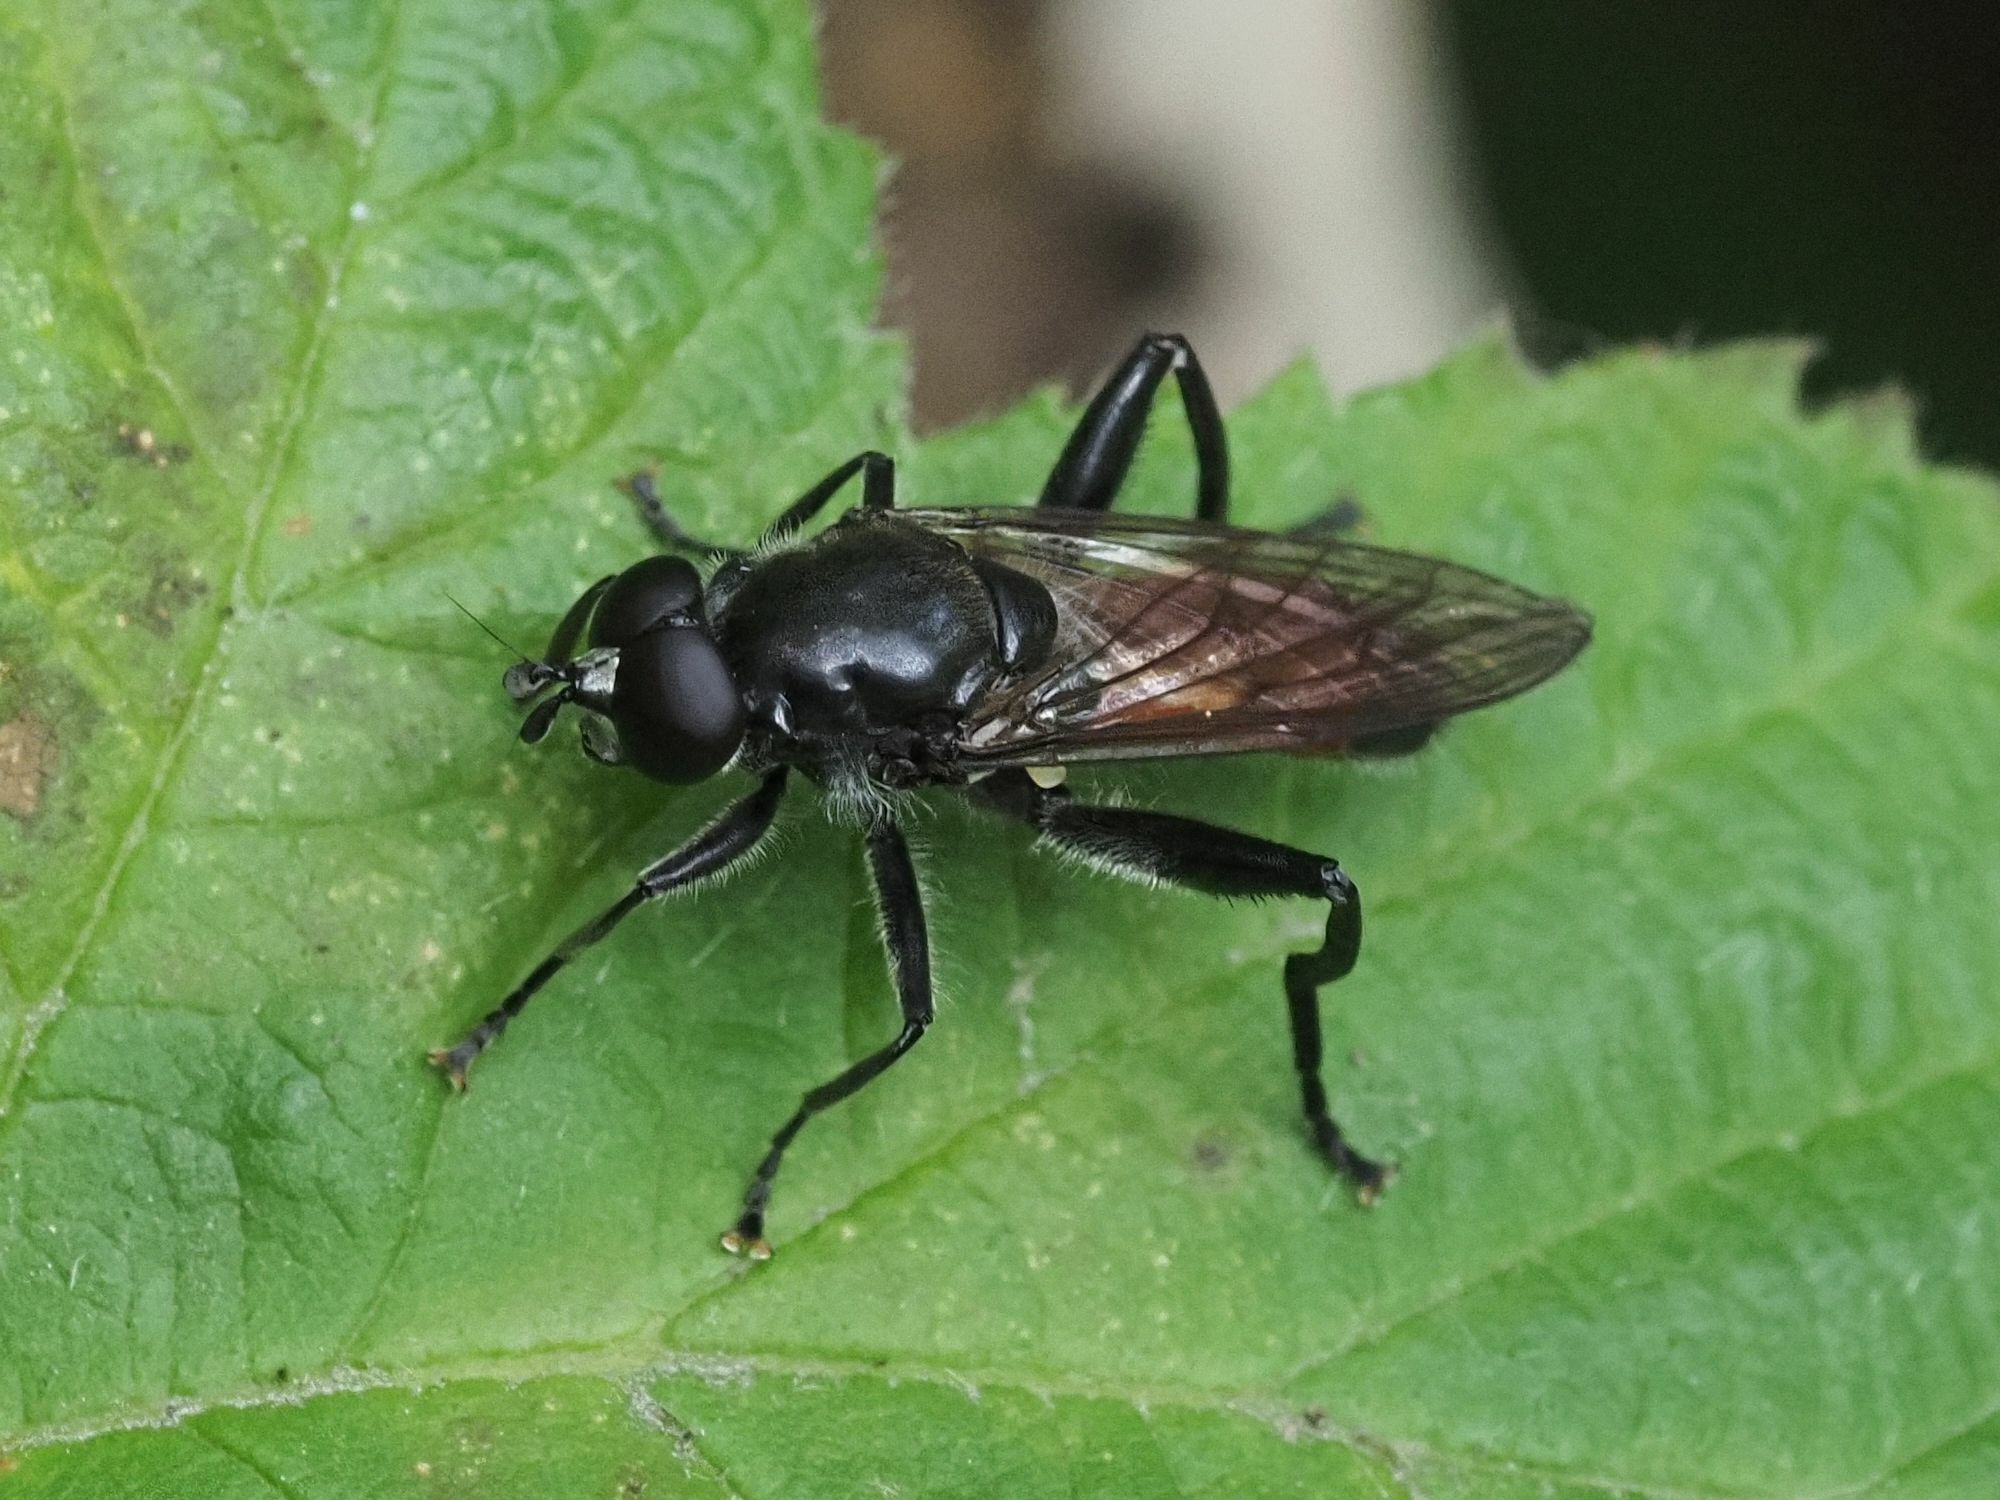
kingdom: Animalia
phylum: Arthropoda
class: Insecta
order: Diptera
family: Syrphidae
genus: Brachypalpoides
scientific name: Brachypalpoides lenta
